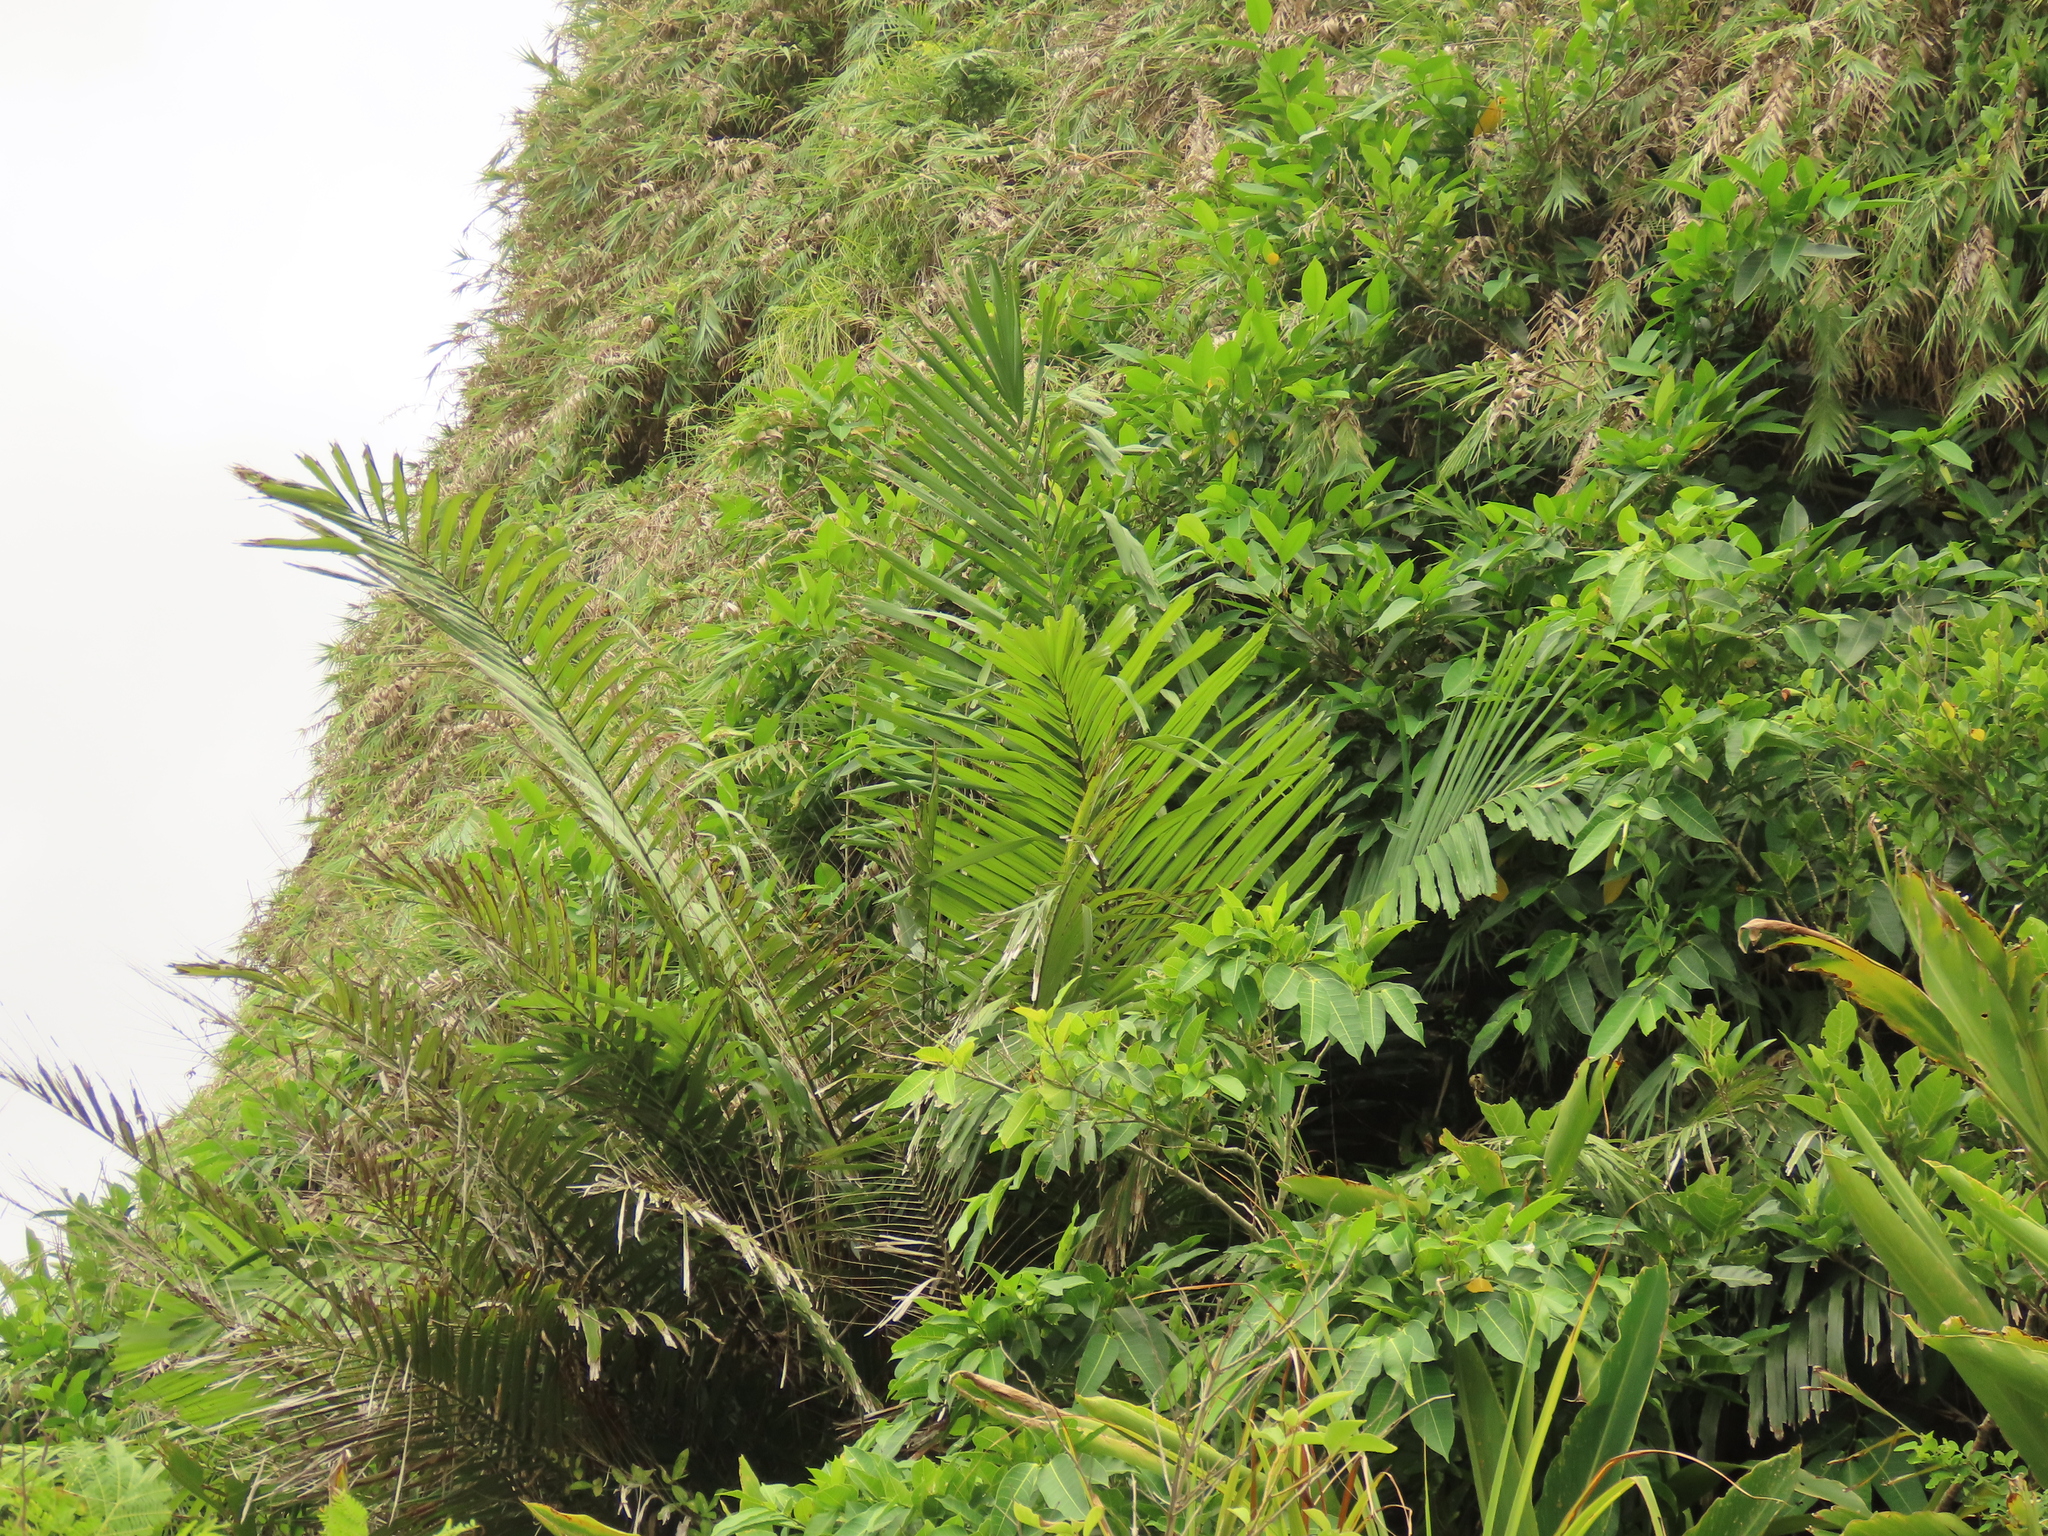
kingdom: Plantae
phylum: Tracheophyta
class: Liliopsida
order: Arecales
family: Arecaceae
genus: Arenga
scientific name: Arenga engleri
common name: Formosan sugar palm
